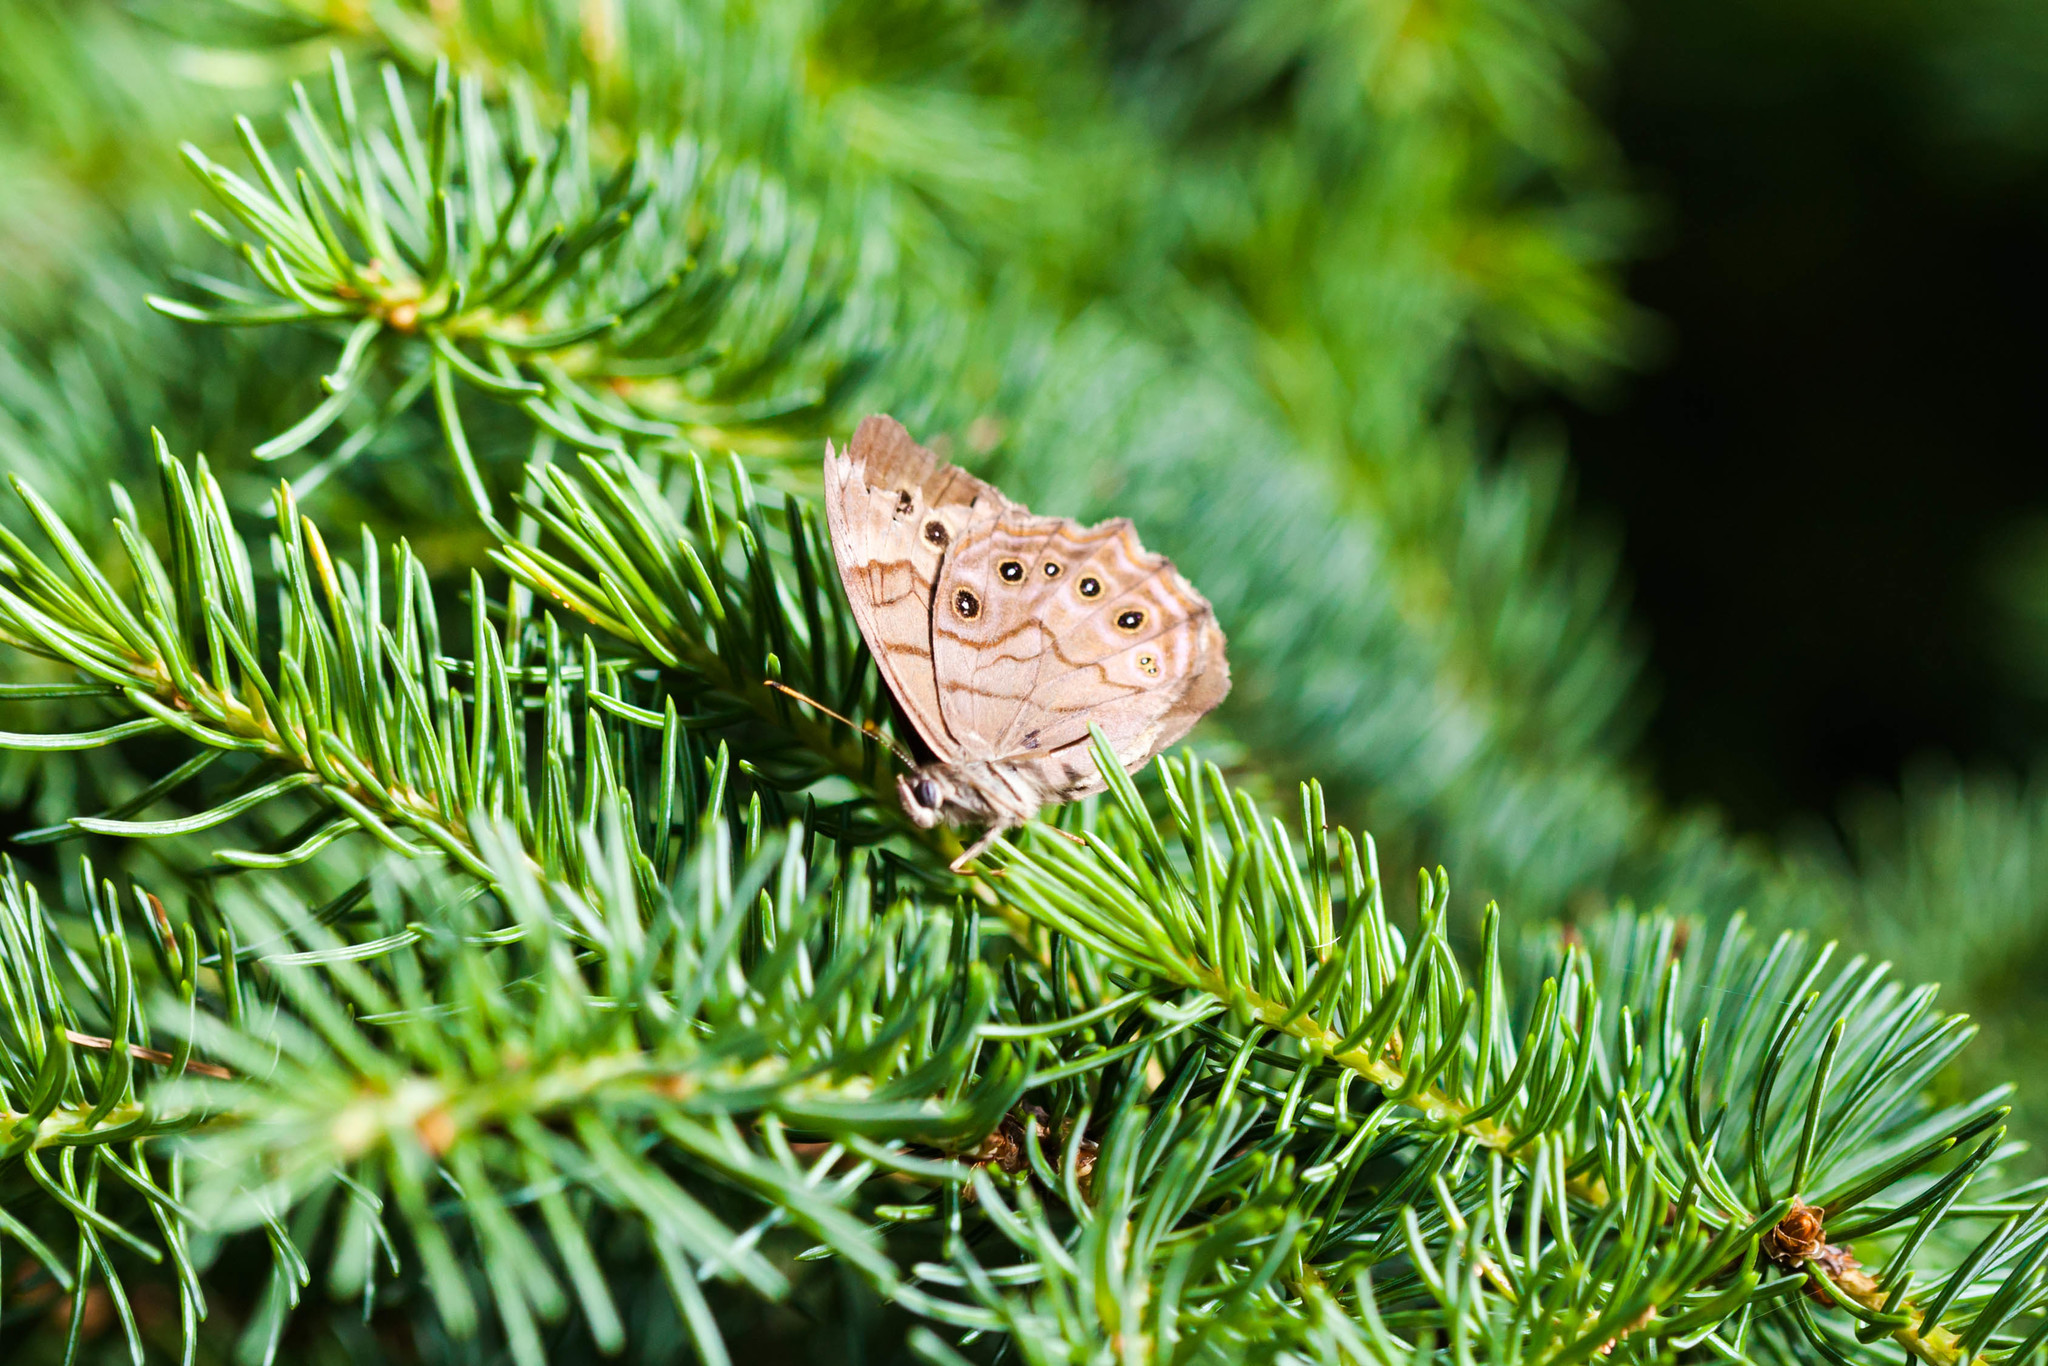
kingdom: Animalia
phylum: Arthropoda
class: Insecta
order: Lepidoptera
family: Nymphalidae
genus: Lethe
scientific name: Lethe anthedon
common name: Northern pearly-eye
